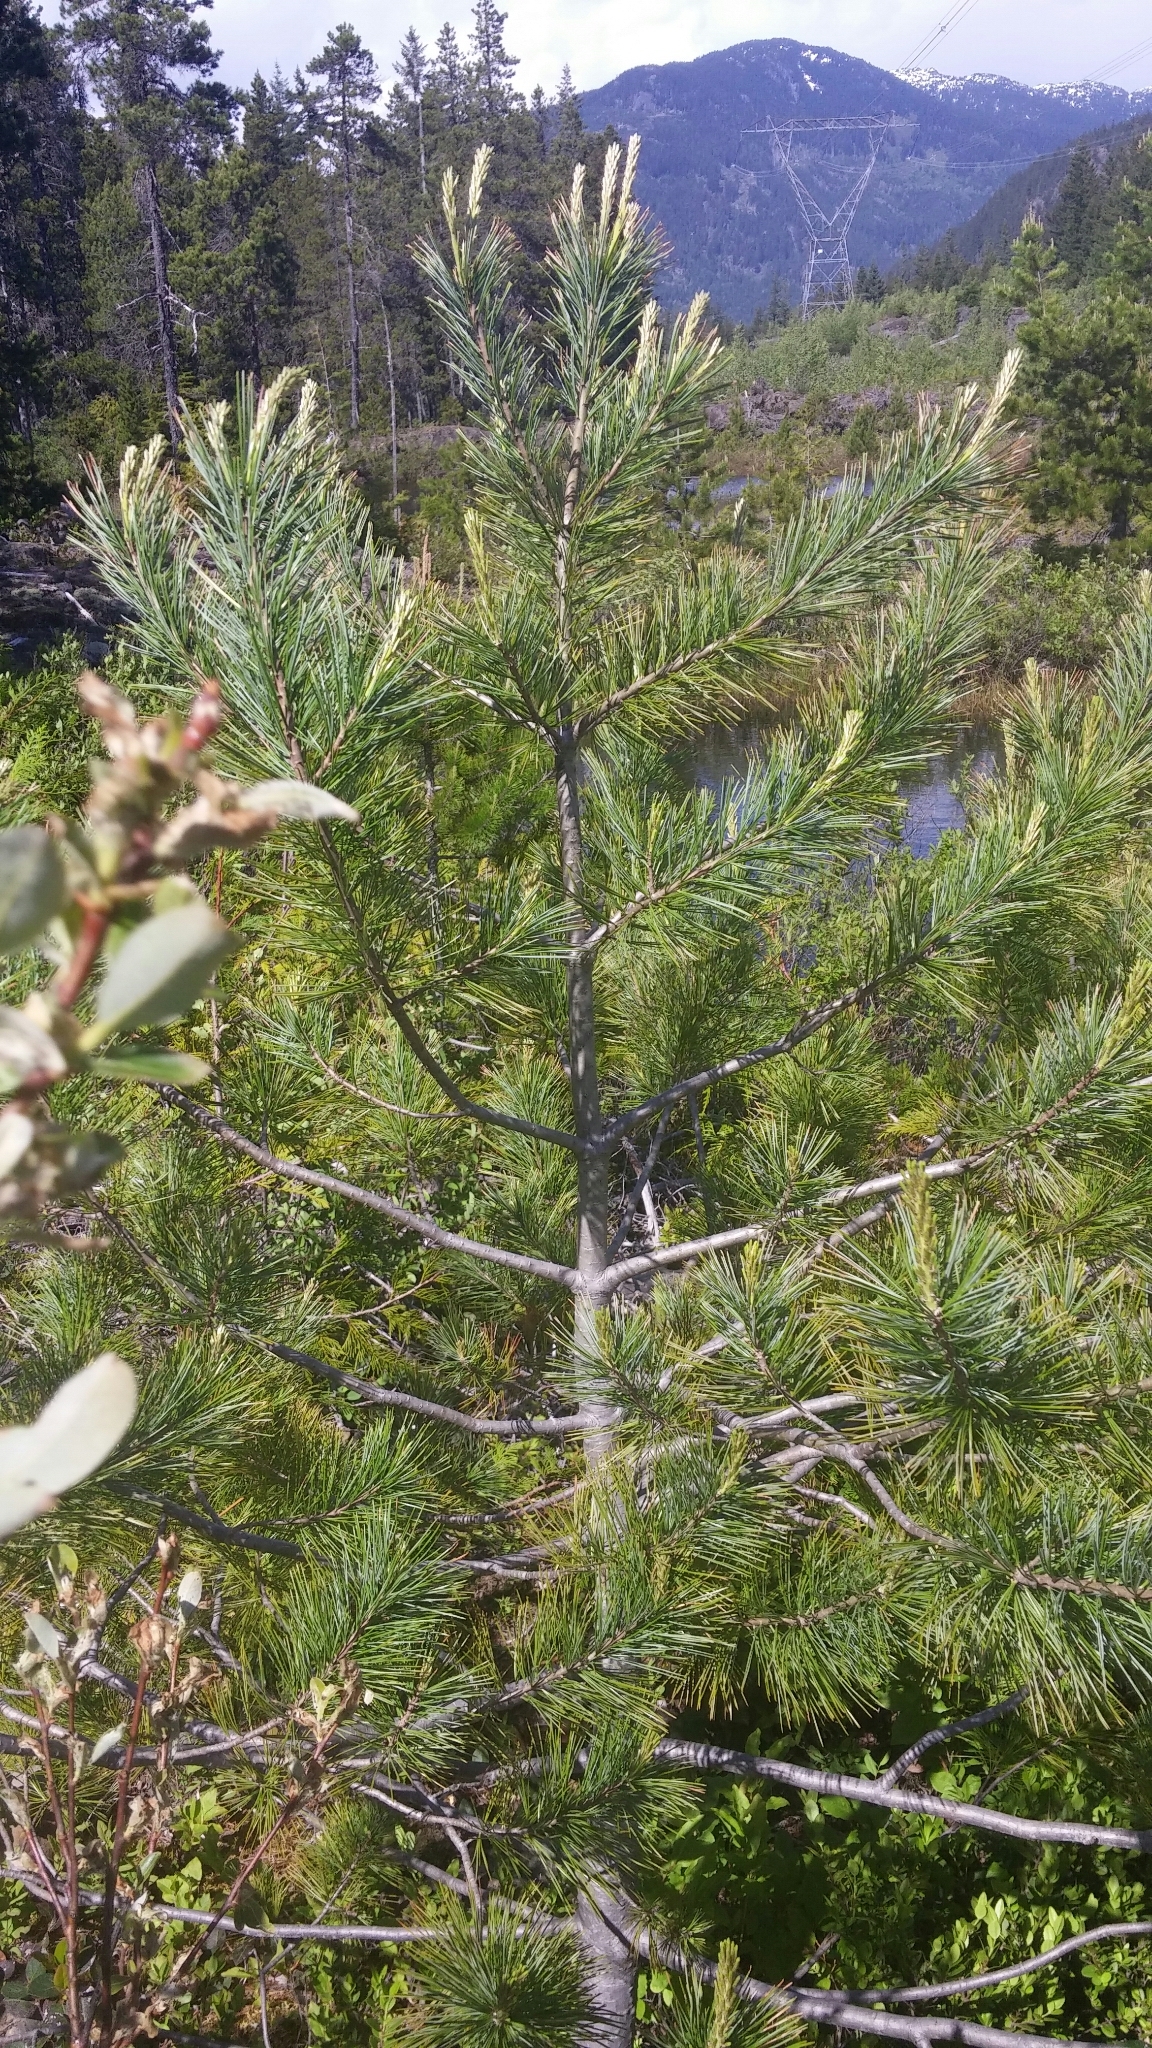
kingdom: Plantae
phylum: Tracheophyta
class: Pinopsida
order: Pinales
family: Pinaceae
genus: Pinus
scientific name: Pinus monticola
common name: Western white pine
